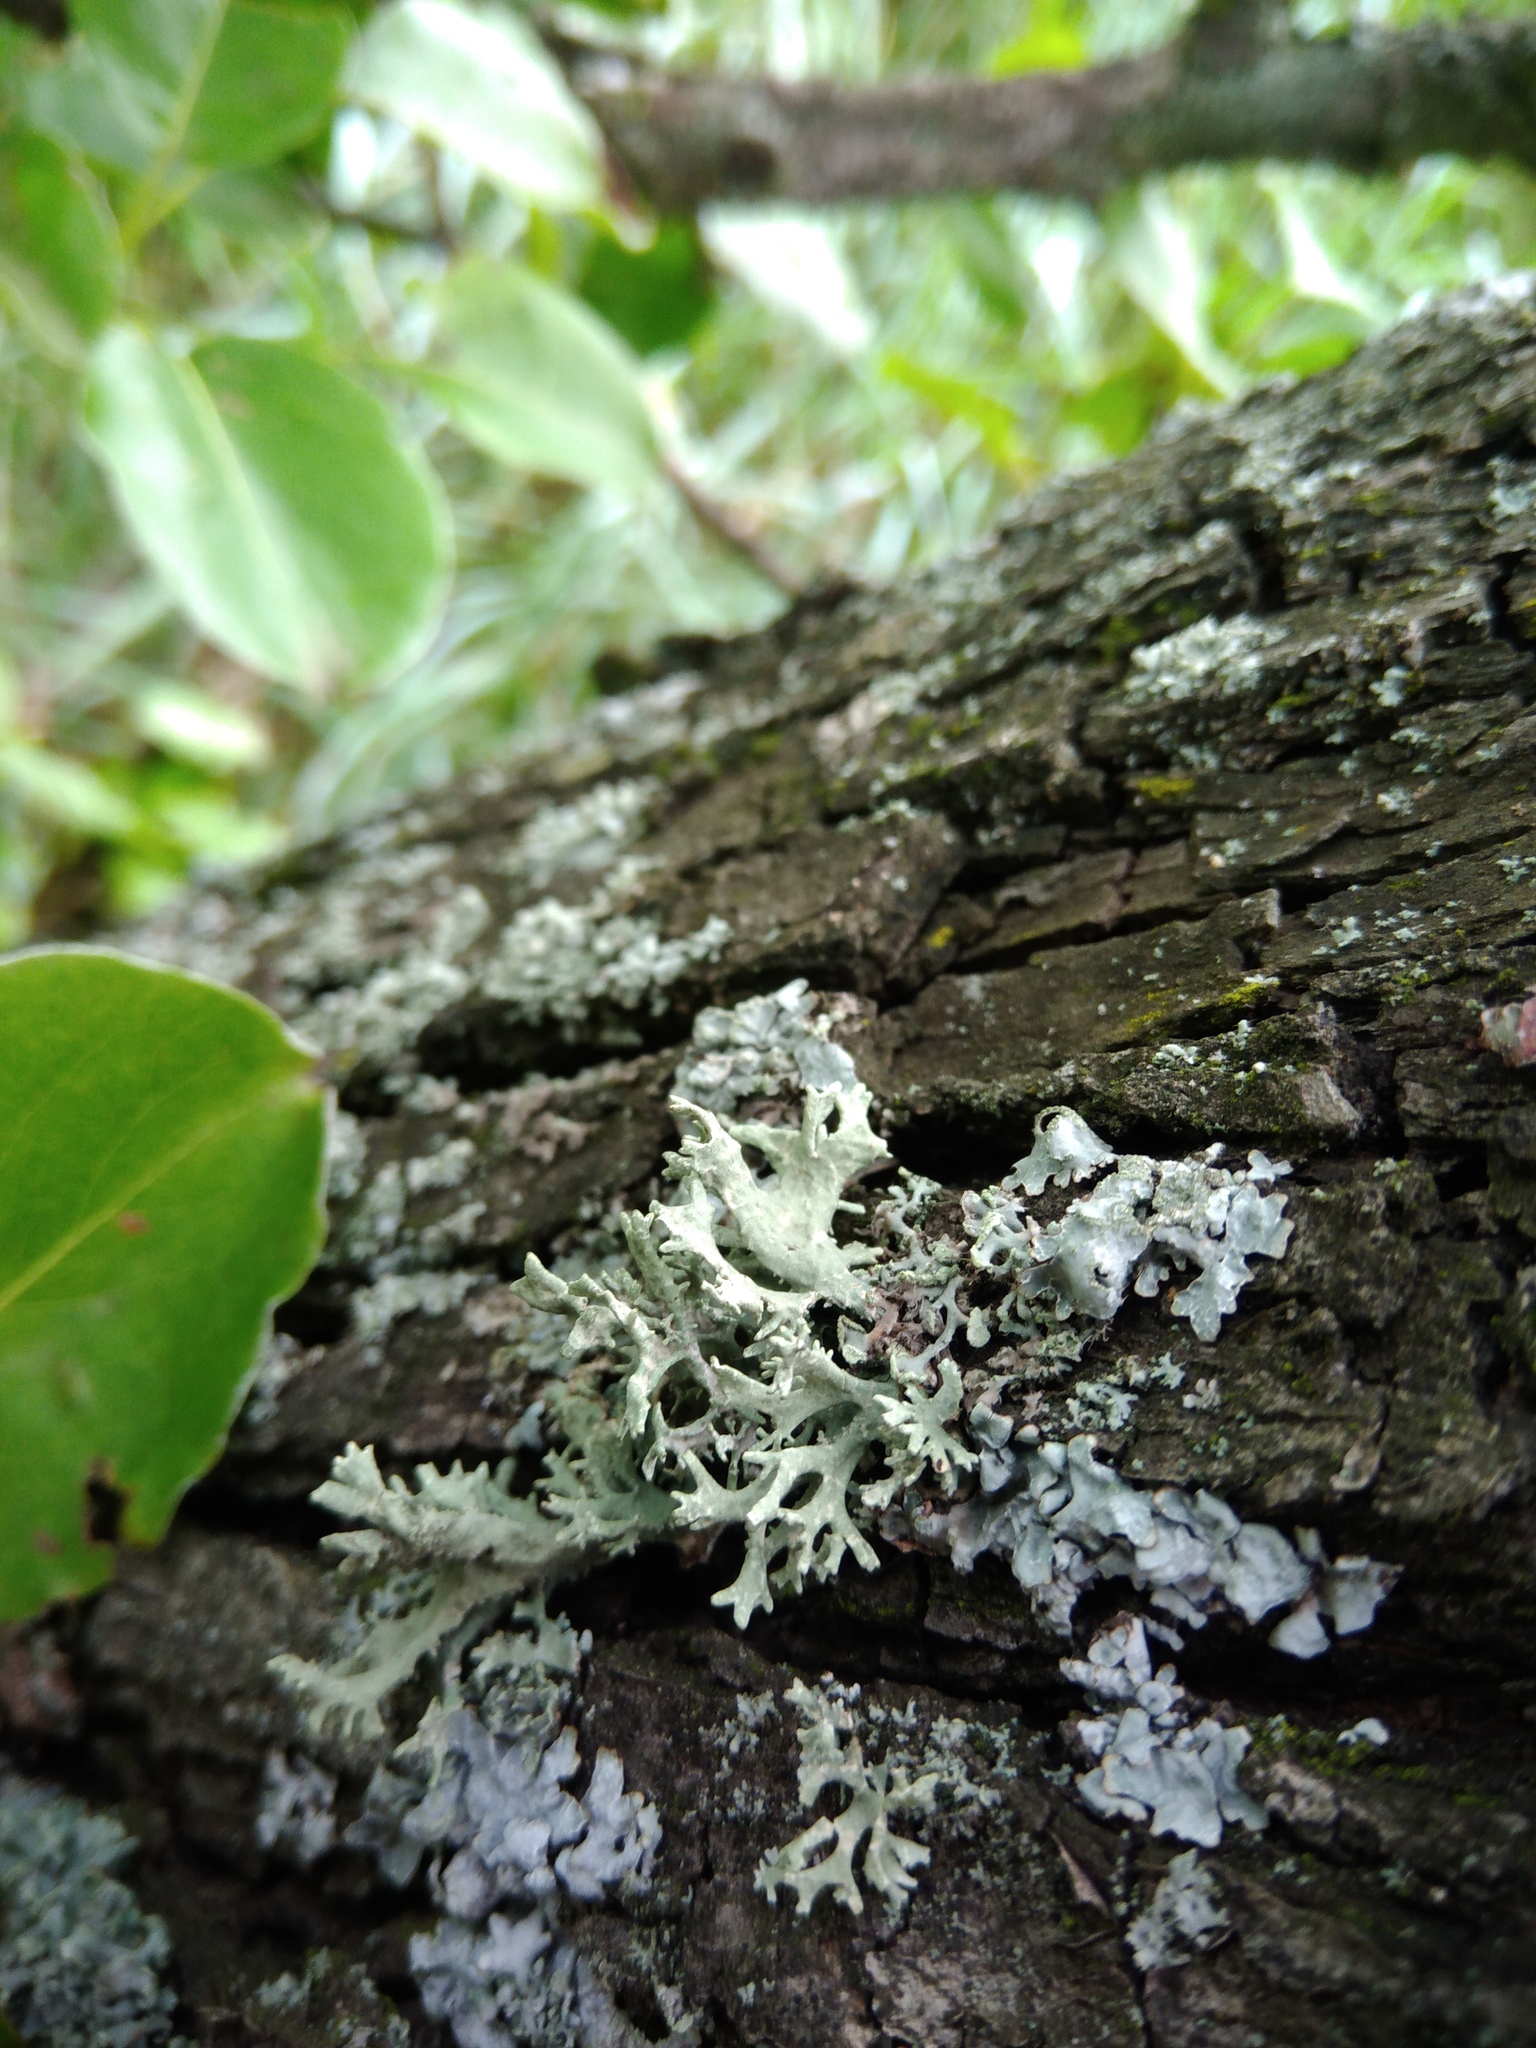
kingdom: Fungi
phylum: Ascomycota
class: Lecanoromycetes
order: Lecanorales
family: Parmeliaceae
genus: Evernia
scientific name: Evernia prunastri
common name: Oak moss
